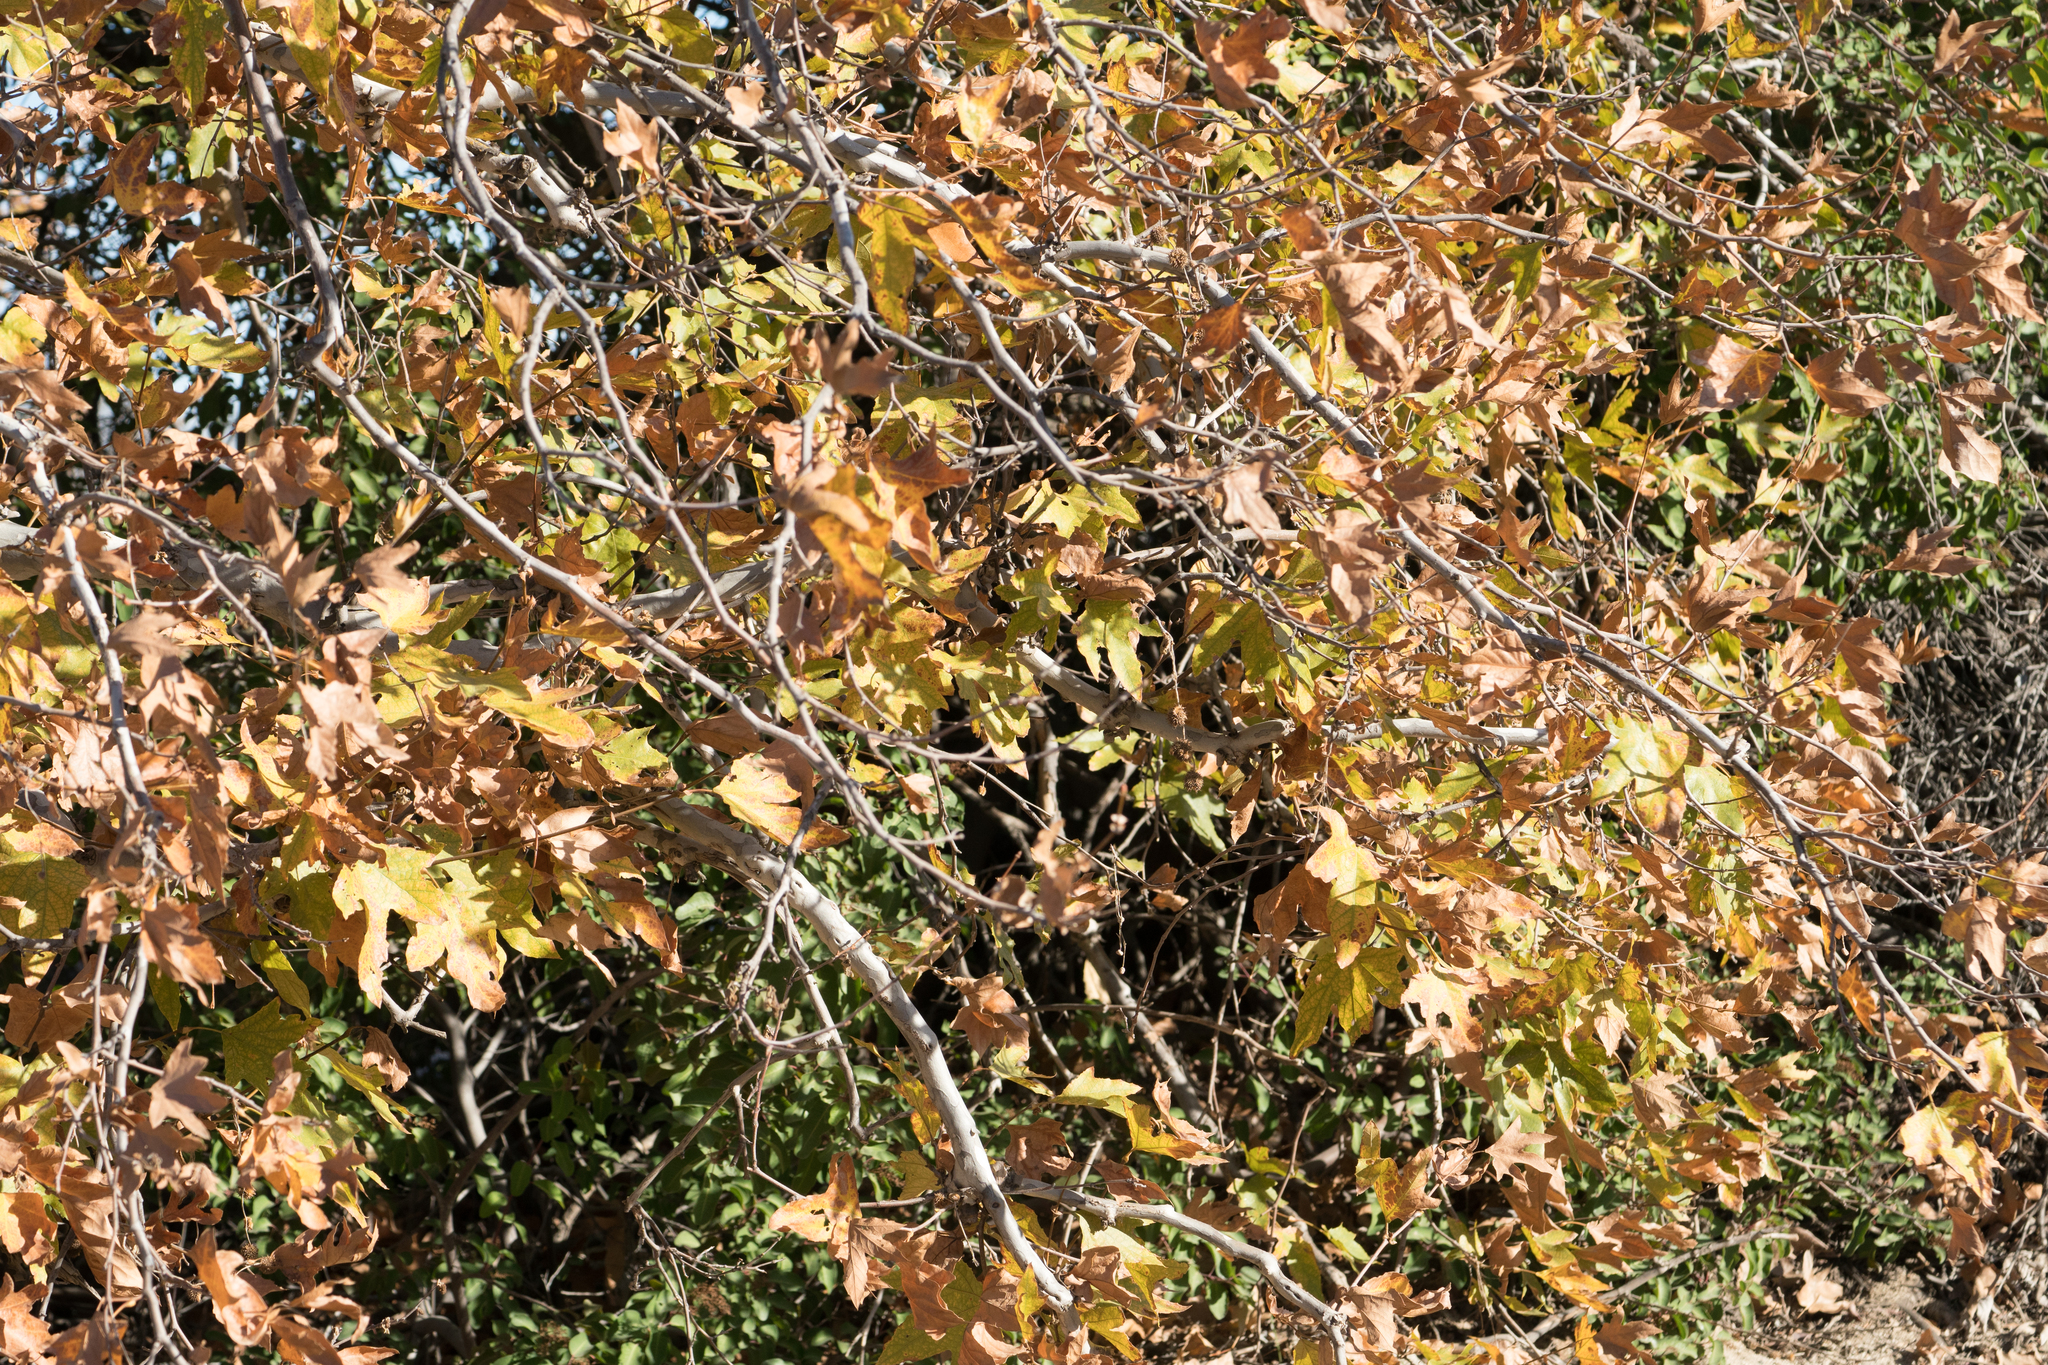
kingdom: Plantae
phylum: Tracheophyta
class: Magnoliopsida
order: Proteales
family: Platanaceae
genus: Platanus
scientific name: Platanus racemosa
